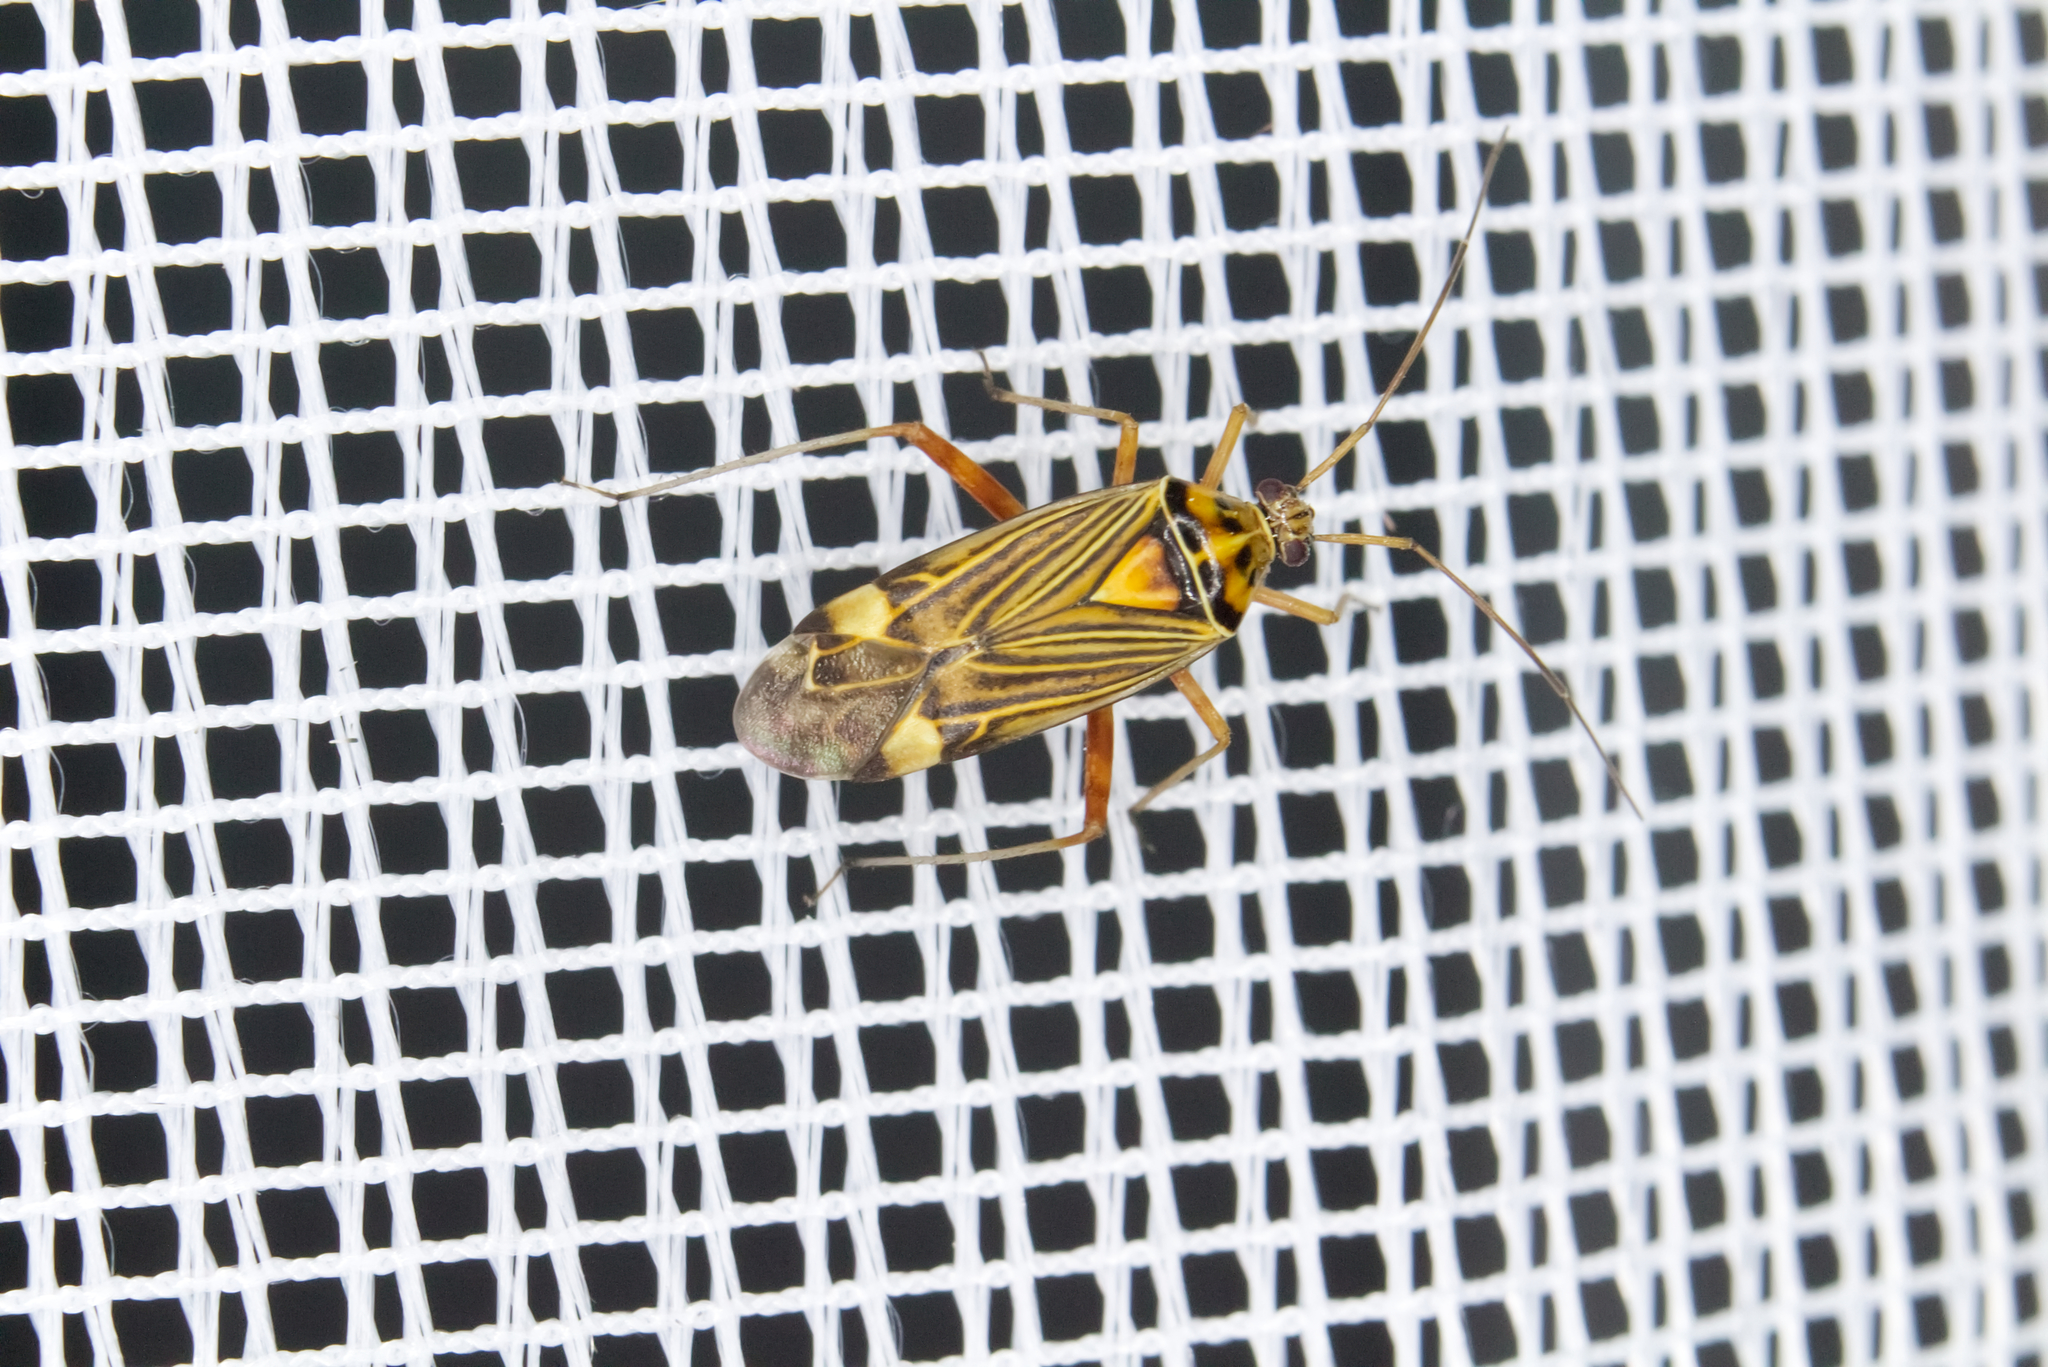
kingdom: Animalia
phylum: Arthropoda
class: Insecta
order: Hemiptera
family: Miridae
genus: Rhabdomiris
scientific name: Rhabdomiris striatellus
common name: Plant bug
